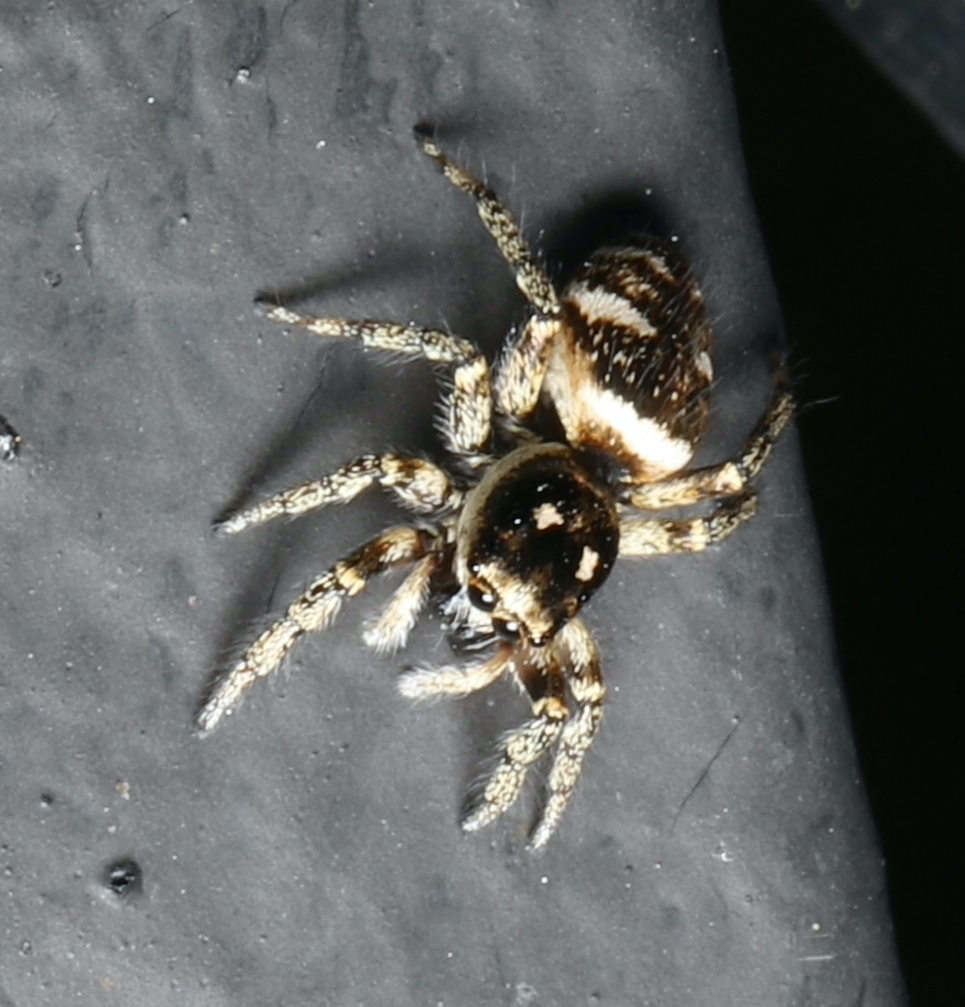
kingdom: Animalia
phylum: Arthropoda
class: Arachnida
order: Araneae
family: Salticidae
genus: Salticus
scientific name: Salticus scenicus
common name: Zebra jumper
